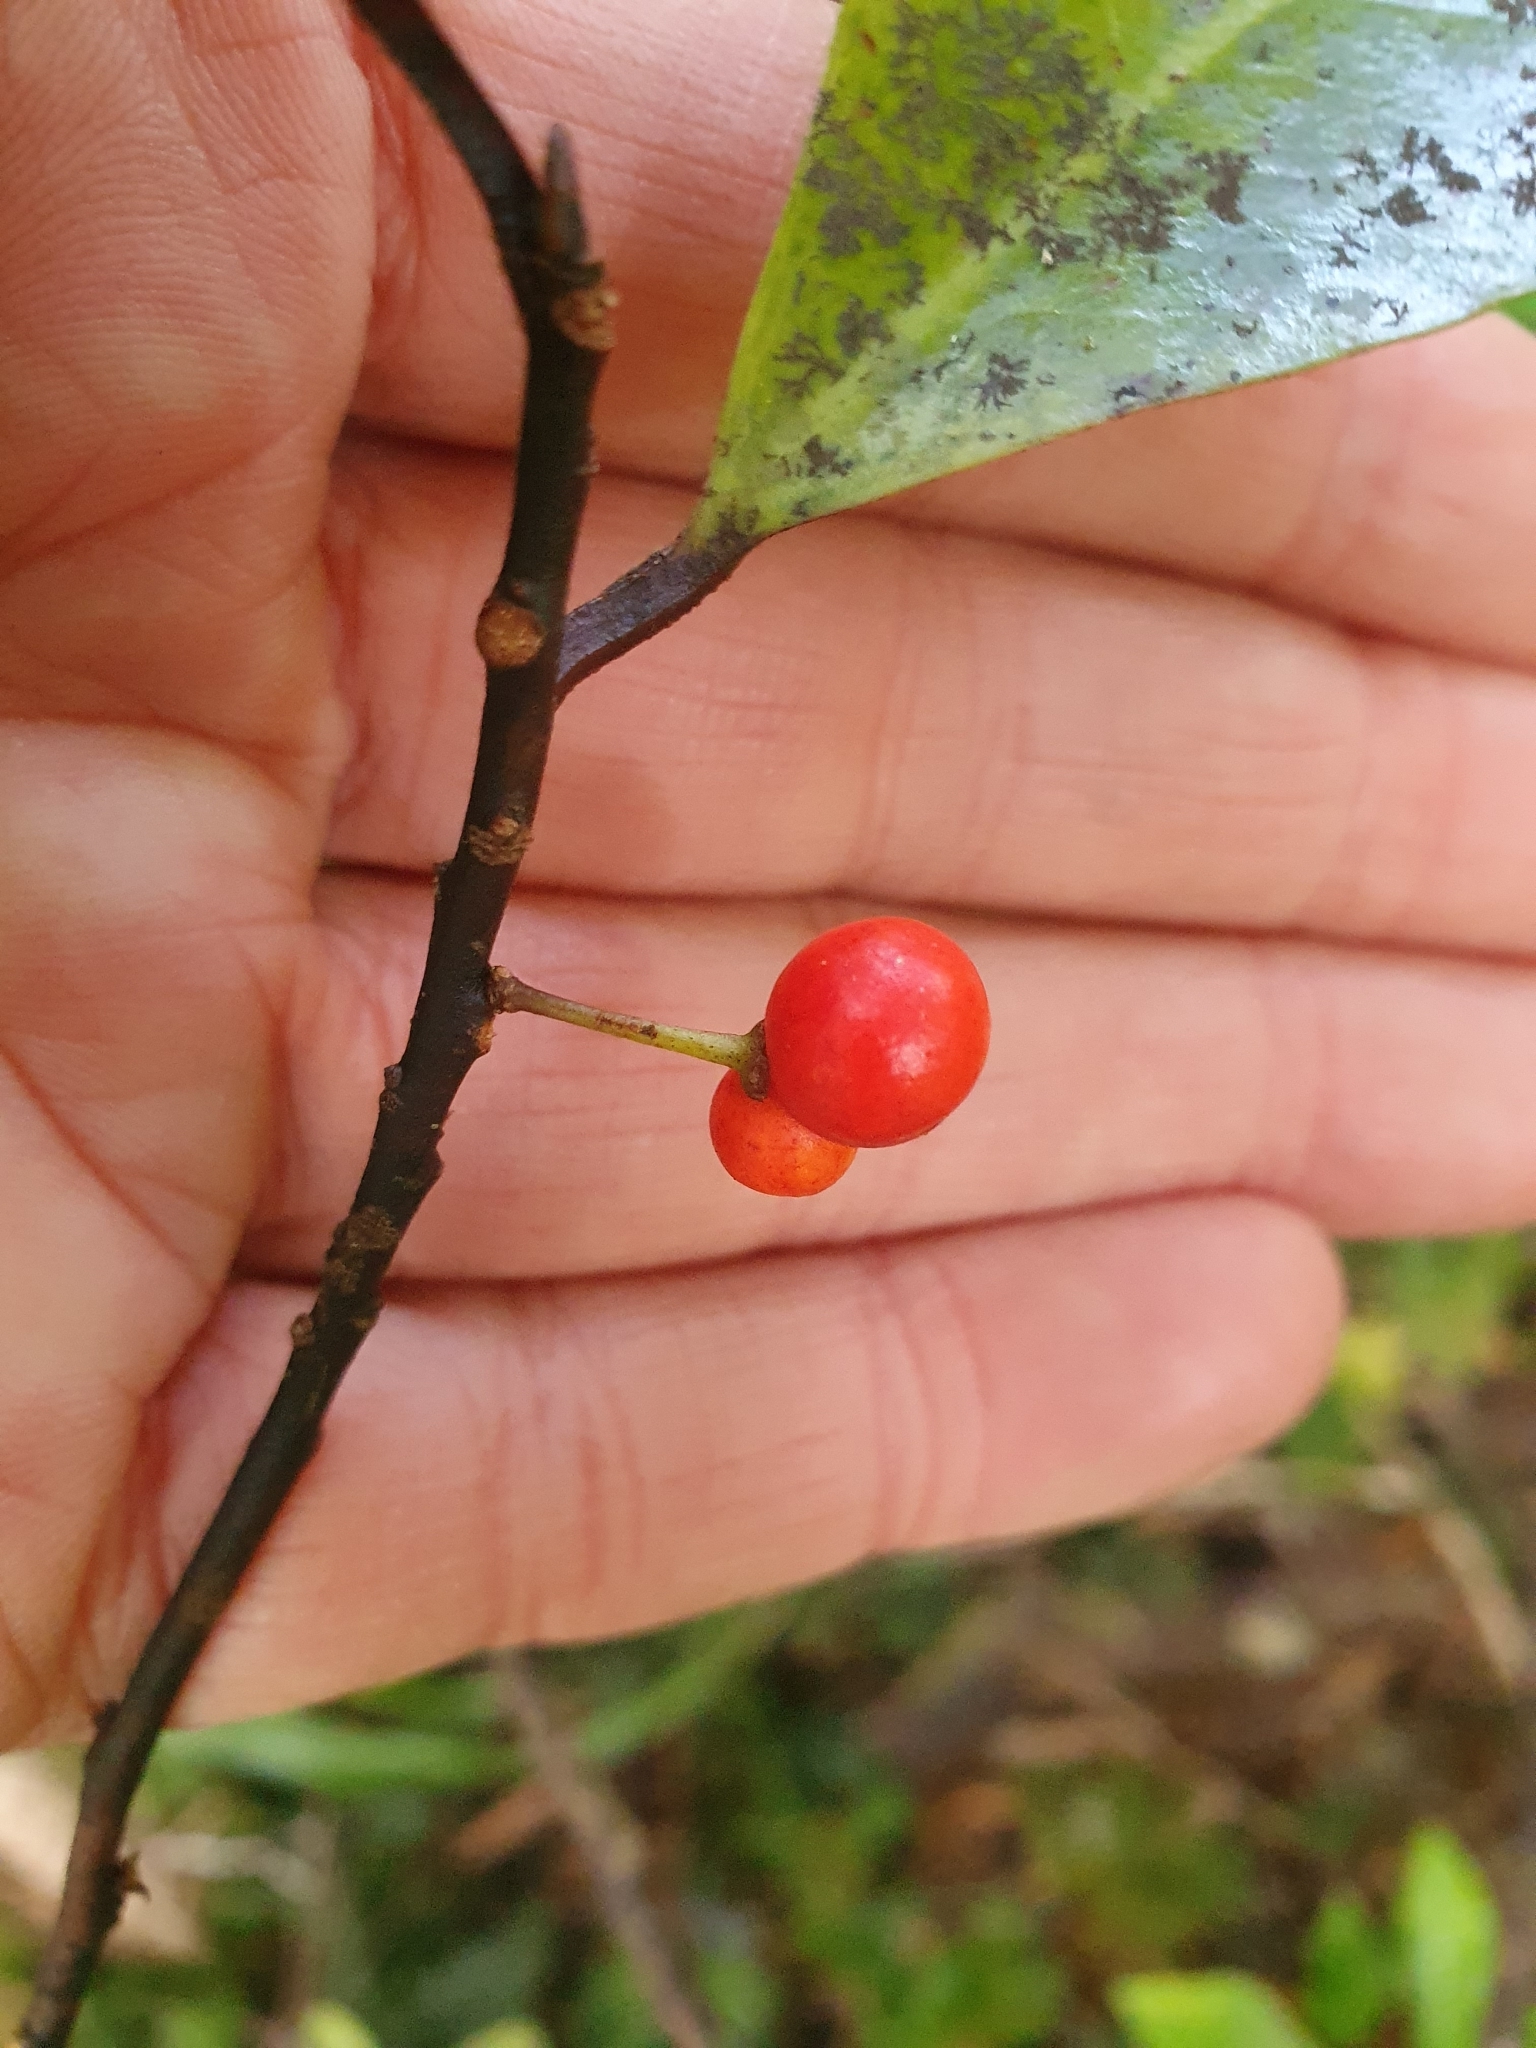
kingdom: Plantae
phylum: Tracheophyta
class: Magnoliopsida
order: Canellales
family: Winteraceae
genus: Pseudowintera
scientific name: Pseudowintera axillaris
